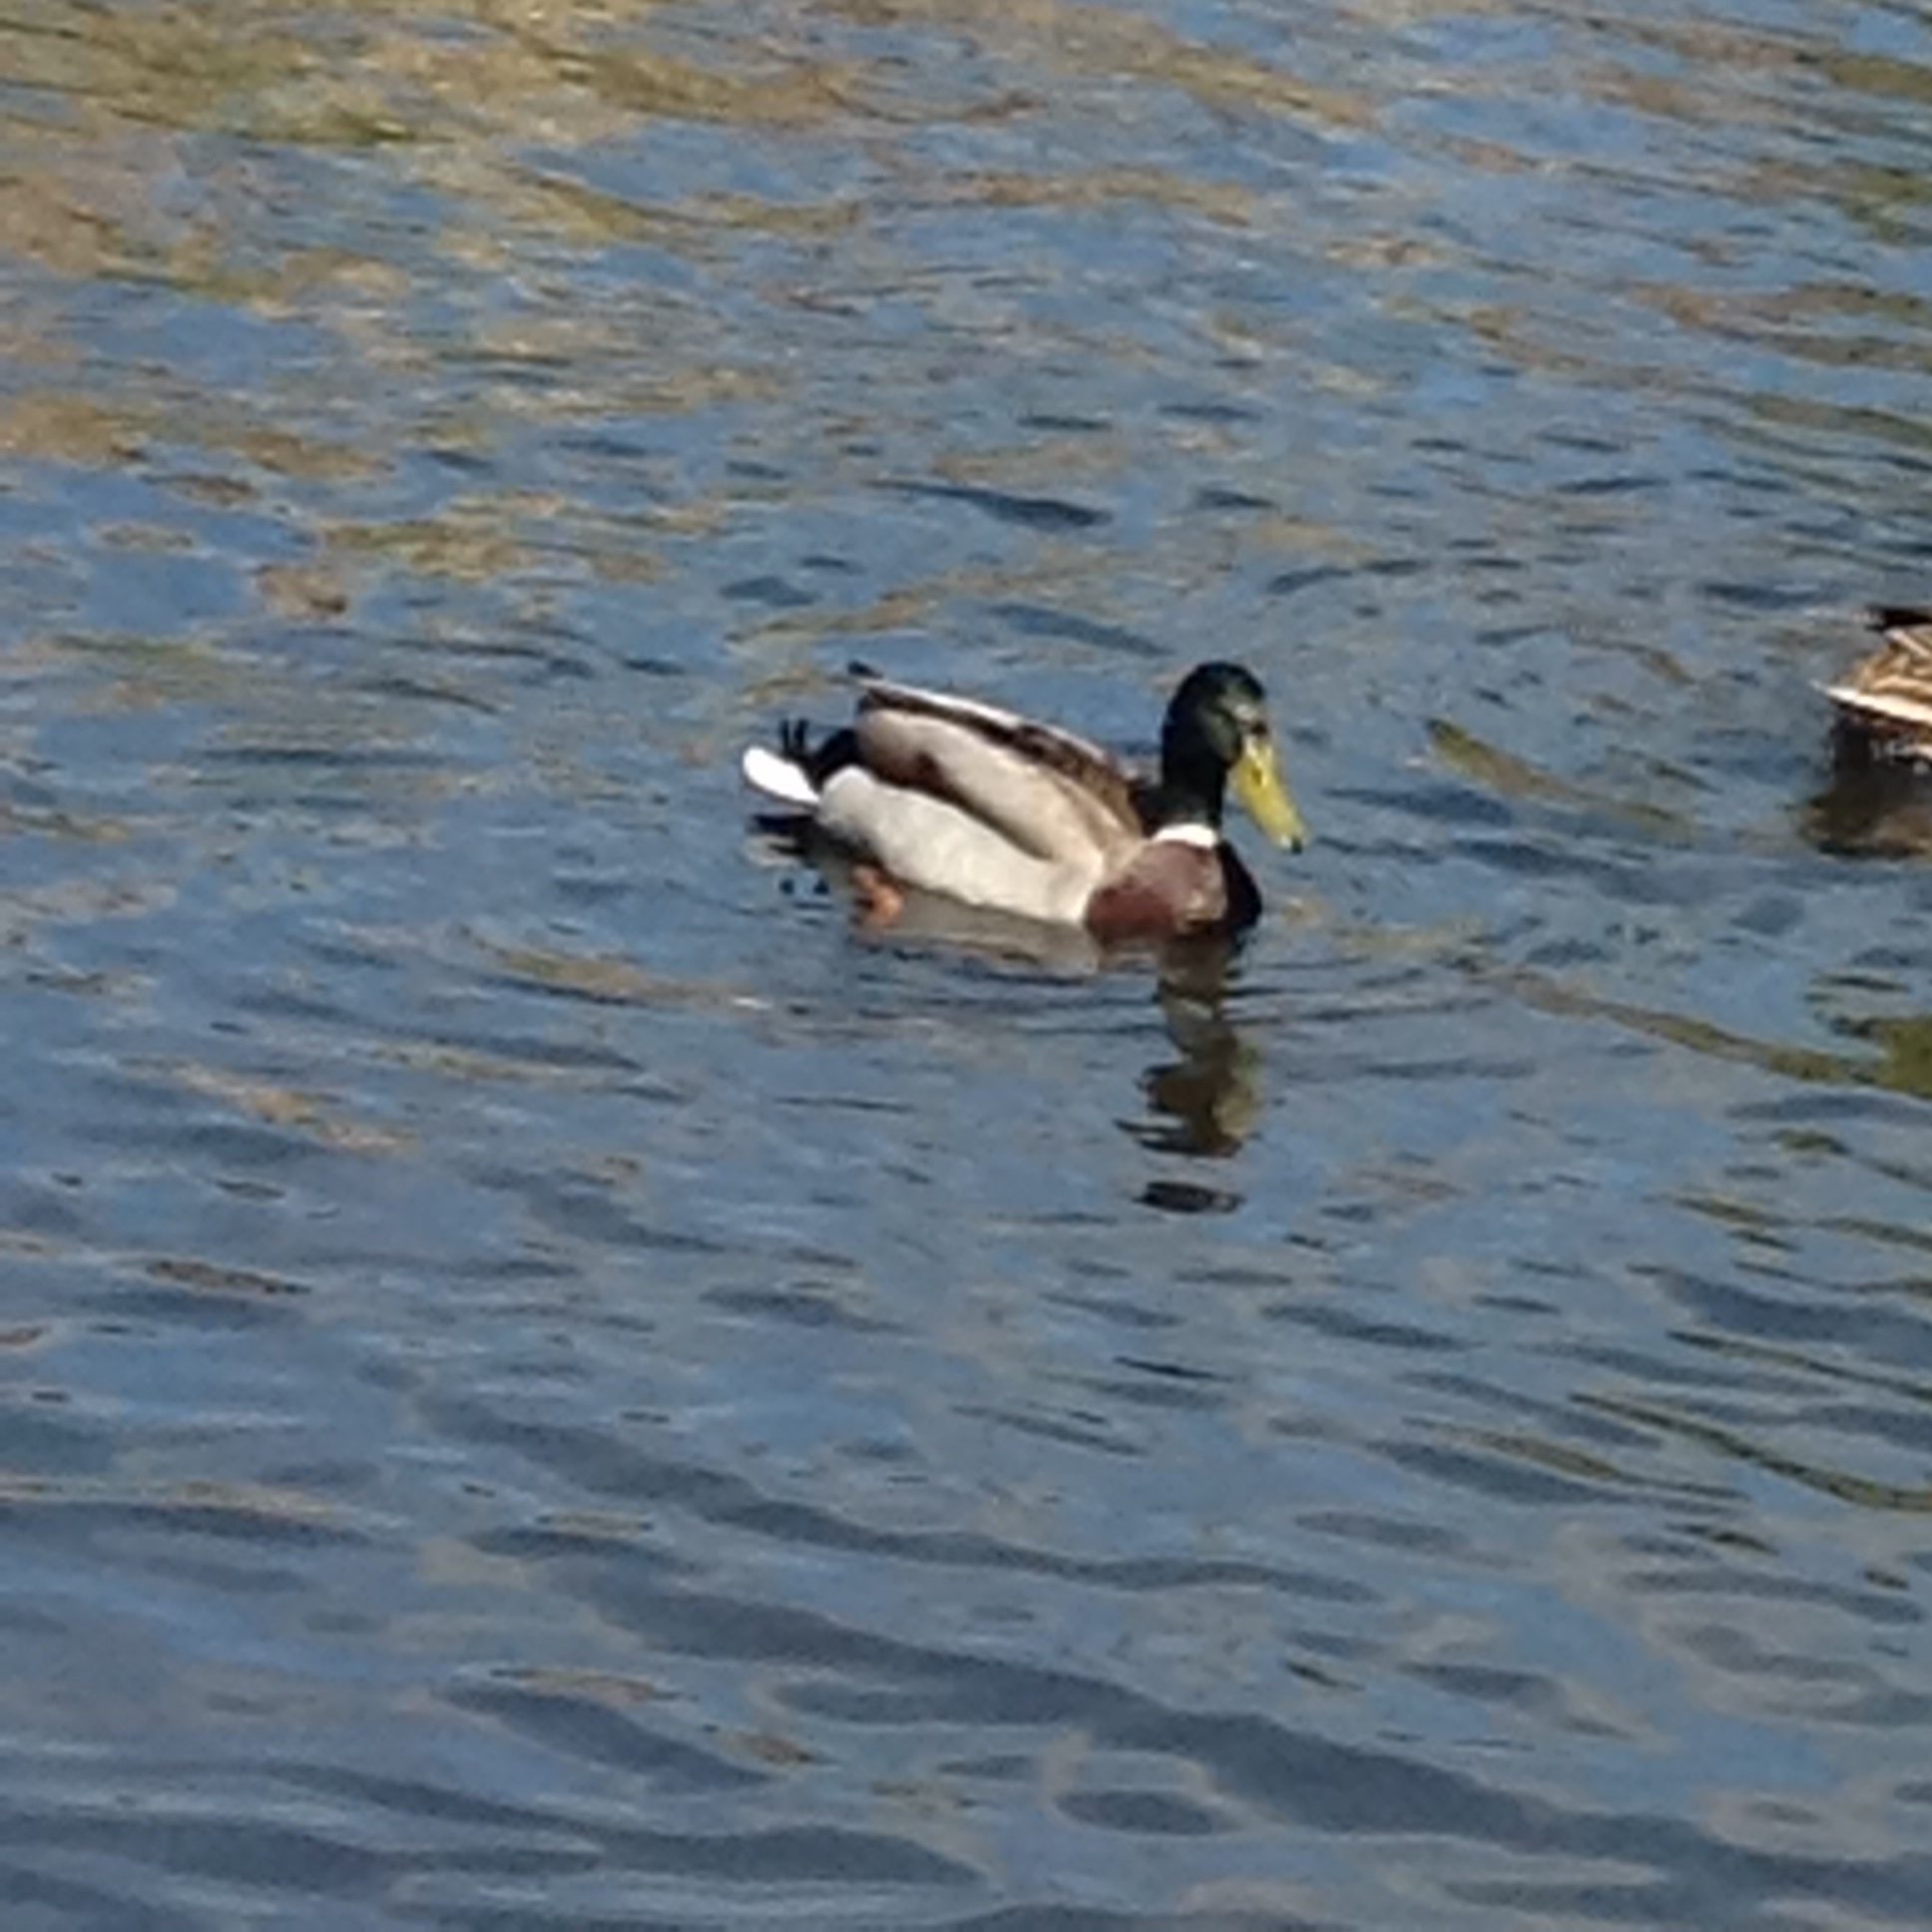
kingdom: Animalia
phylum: Chordata
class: Aves
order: Anseriformes
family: Anatidae
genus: Anas
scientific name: Anas platyrhynchos
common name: Mallard
